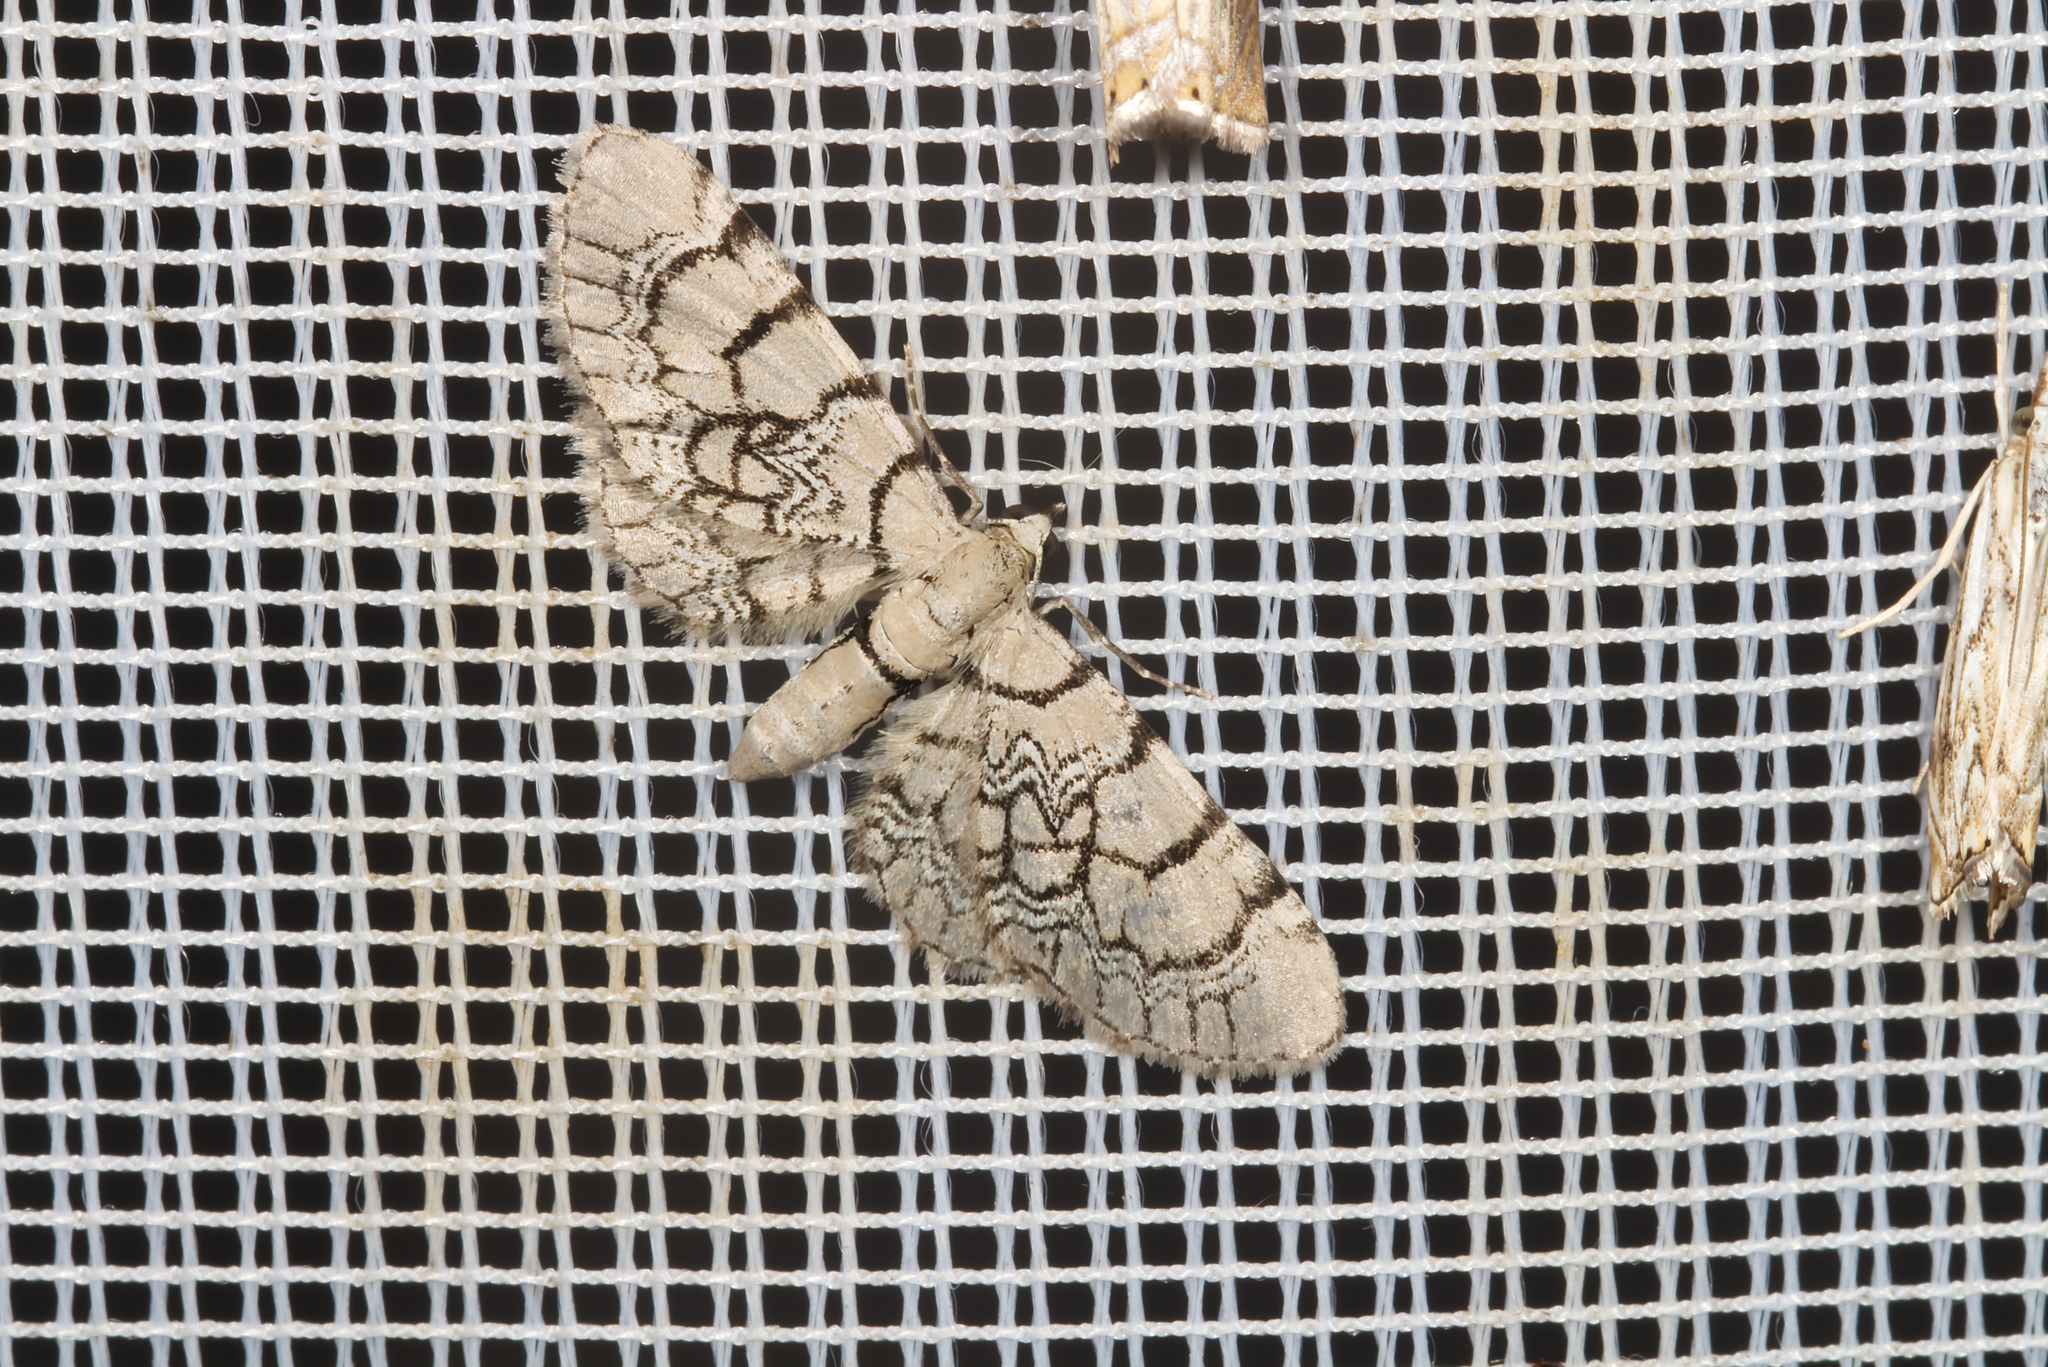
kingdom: Animalia
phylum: Arthropoda
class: Insecta
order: Lepidoptera
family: Geometridae
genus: Eupithecia
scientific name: Eupithecia venosata
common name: Netted pug
